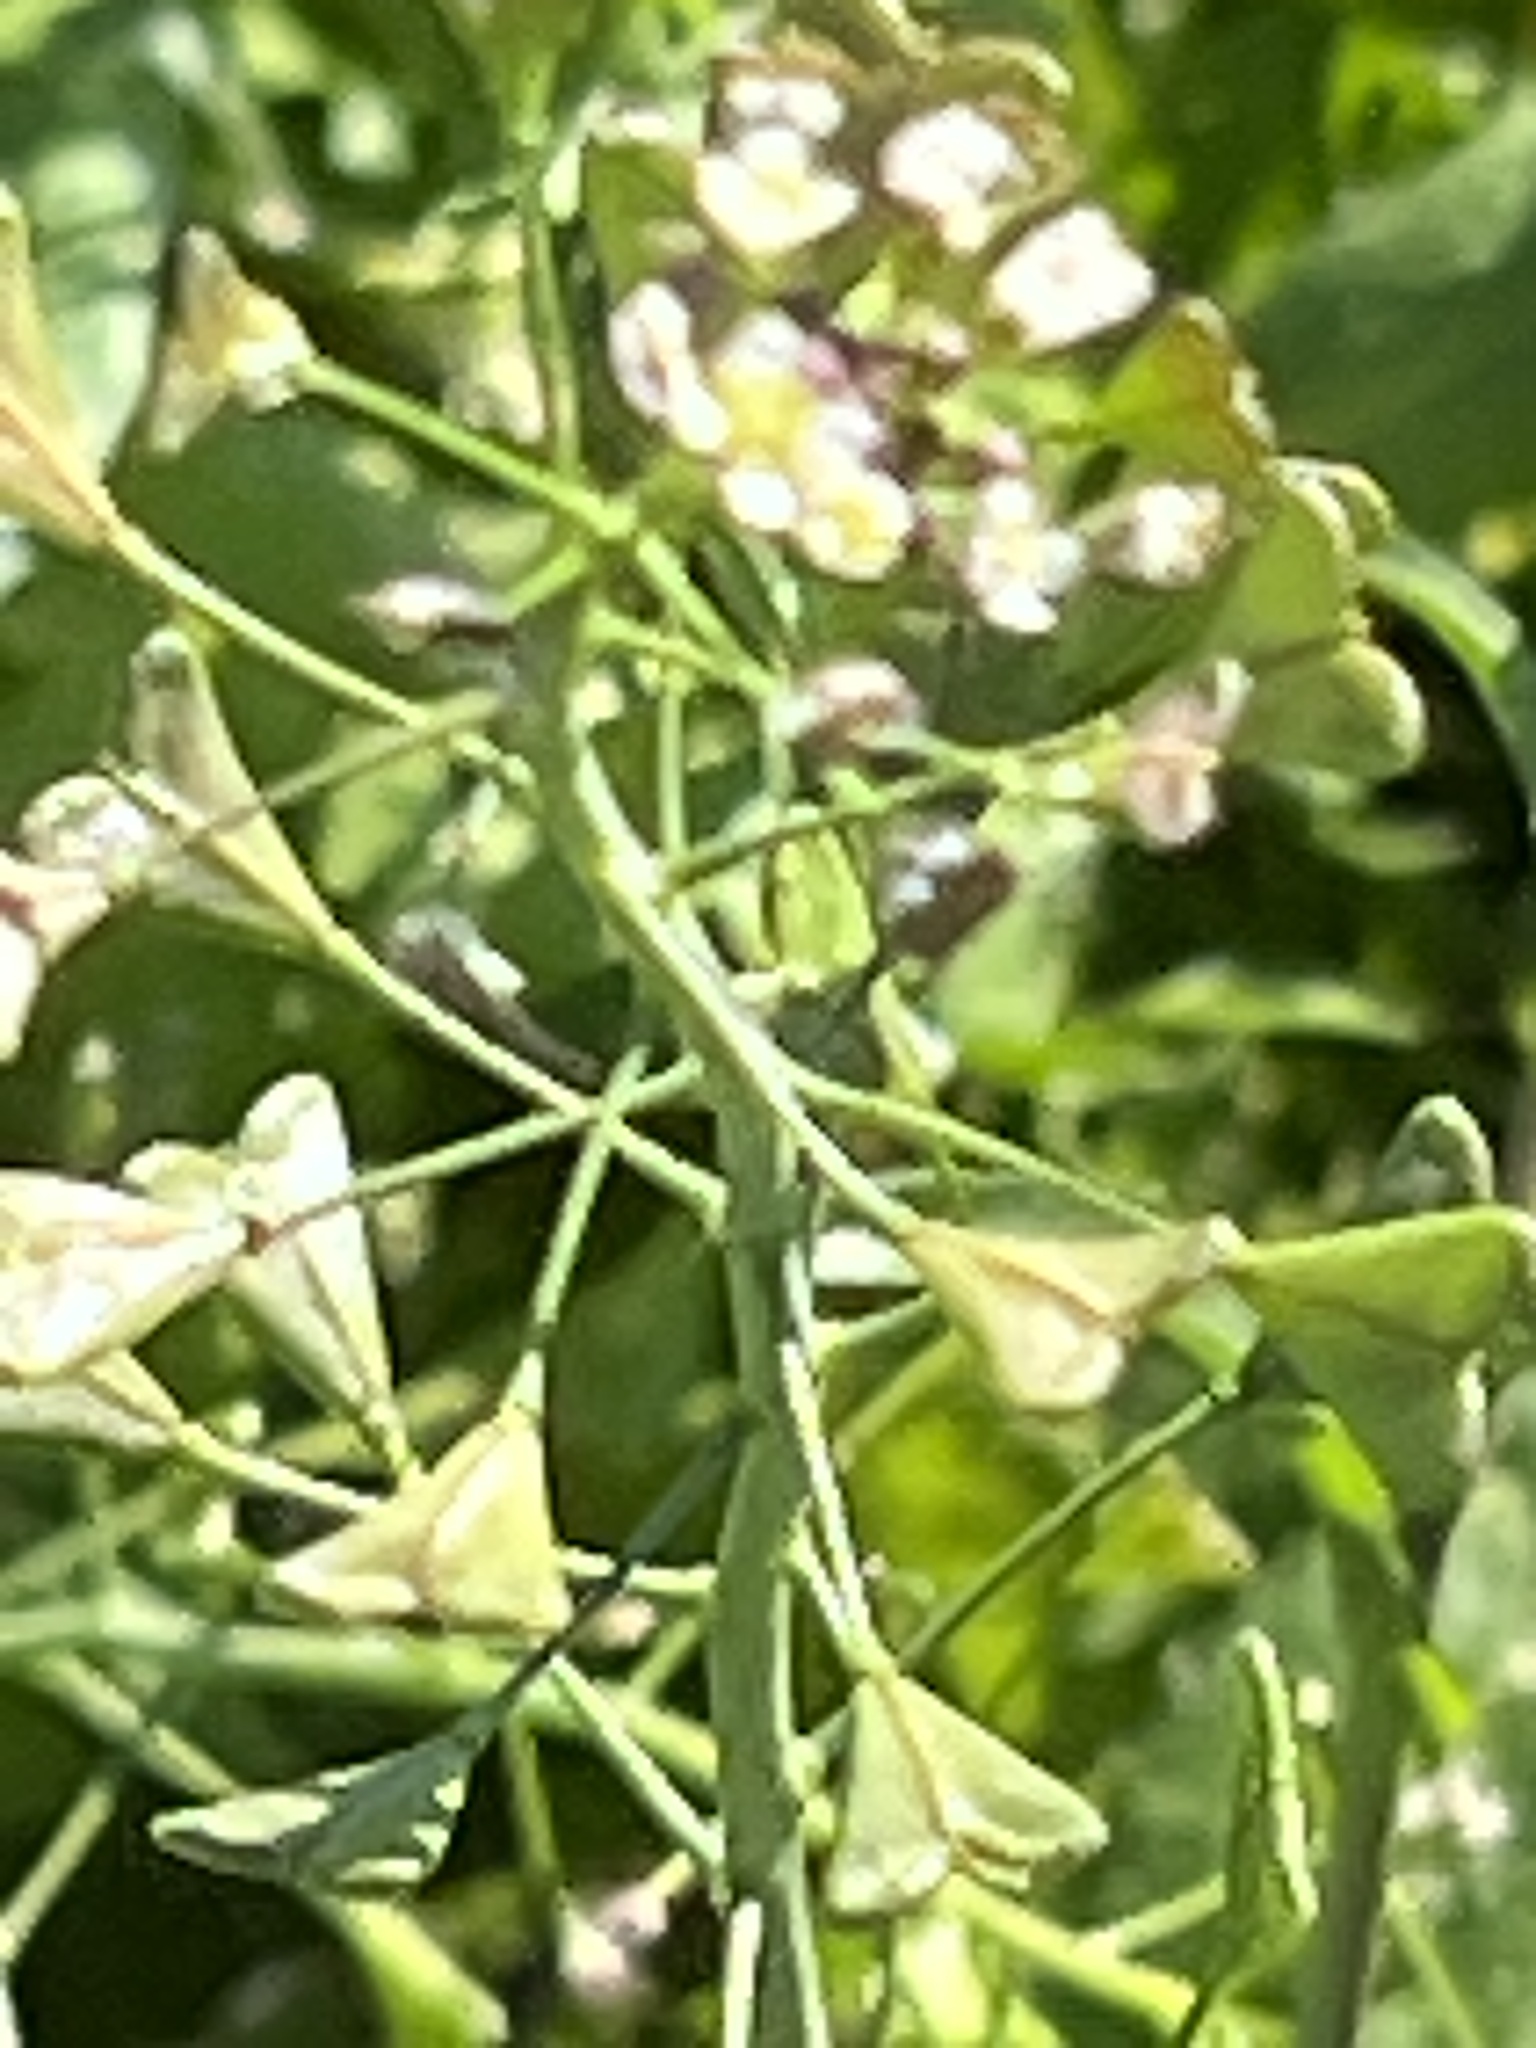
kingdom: Plantae
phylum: Tracheophyta
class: Magnoliopsida
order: Brassicales
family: Brassicaceae
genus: Capsella
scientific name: Capsella bursa-pastoris
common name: Shepherd's purse
